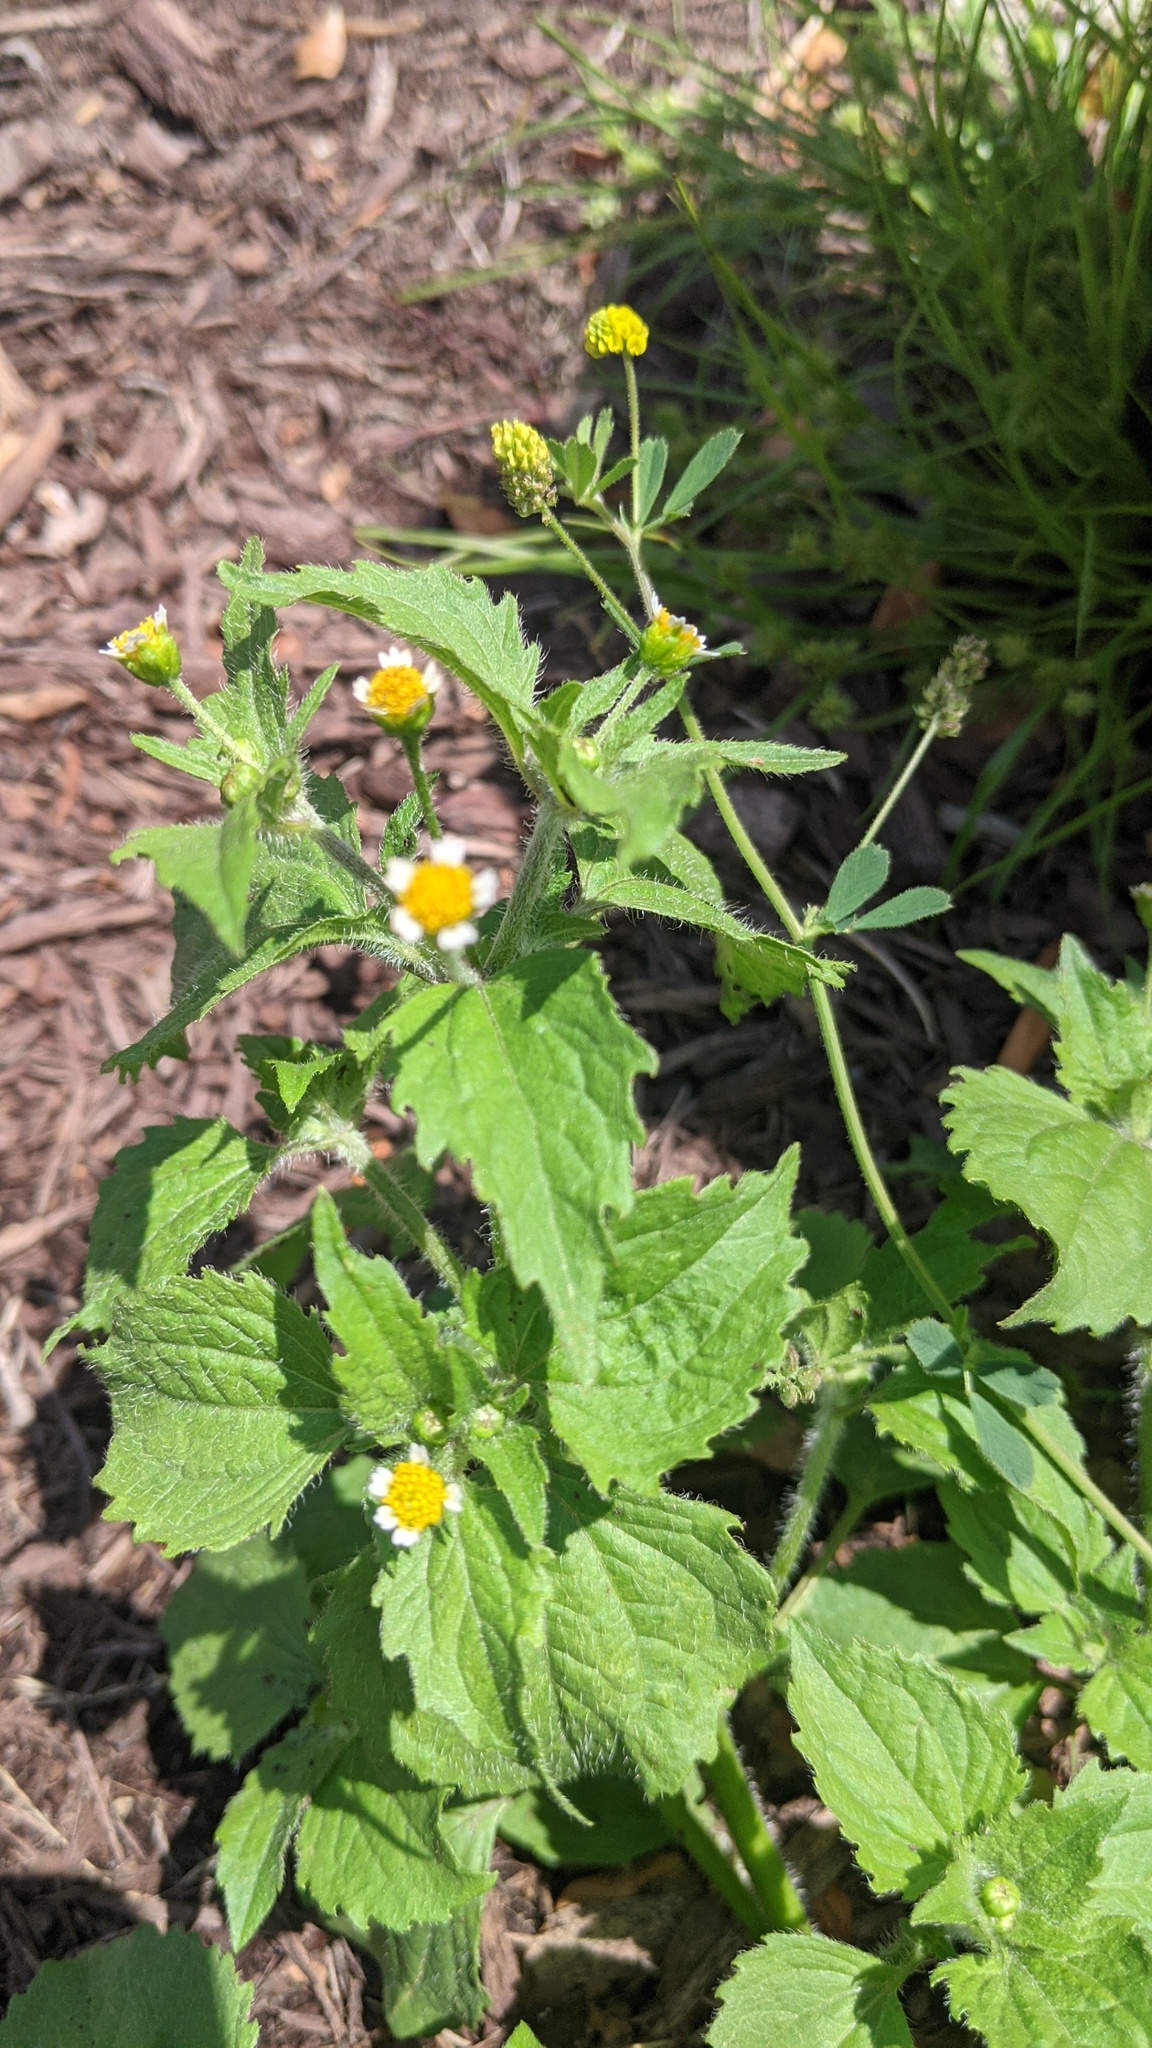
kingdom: Plantae
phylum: Tracheophyta
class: Magnoliopsida
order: Asterales
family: Asteraceae
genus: Galinsoga
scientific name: Galinsoga quadriradiata
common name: Shaggy soldier
